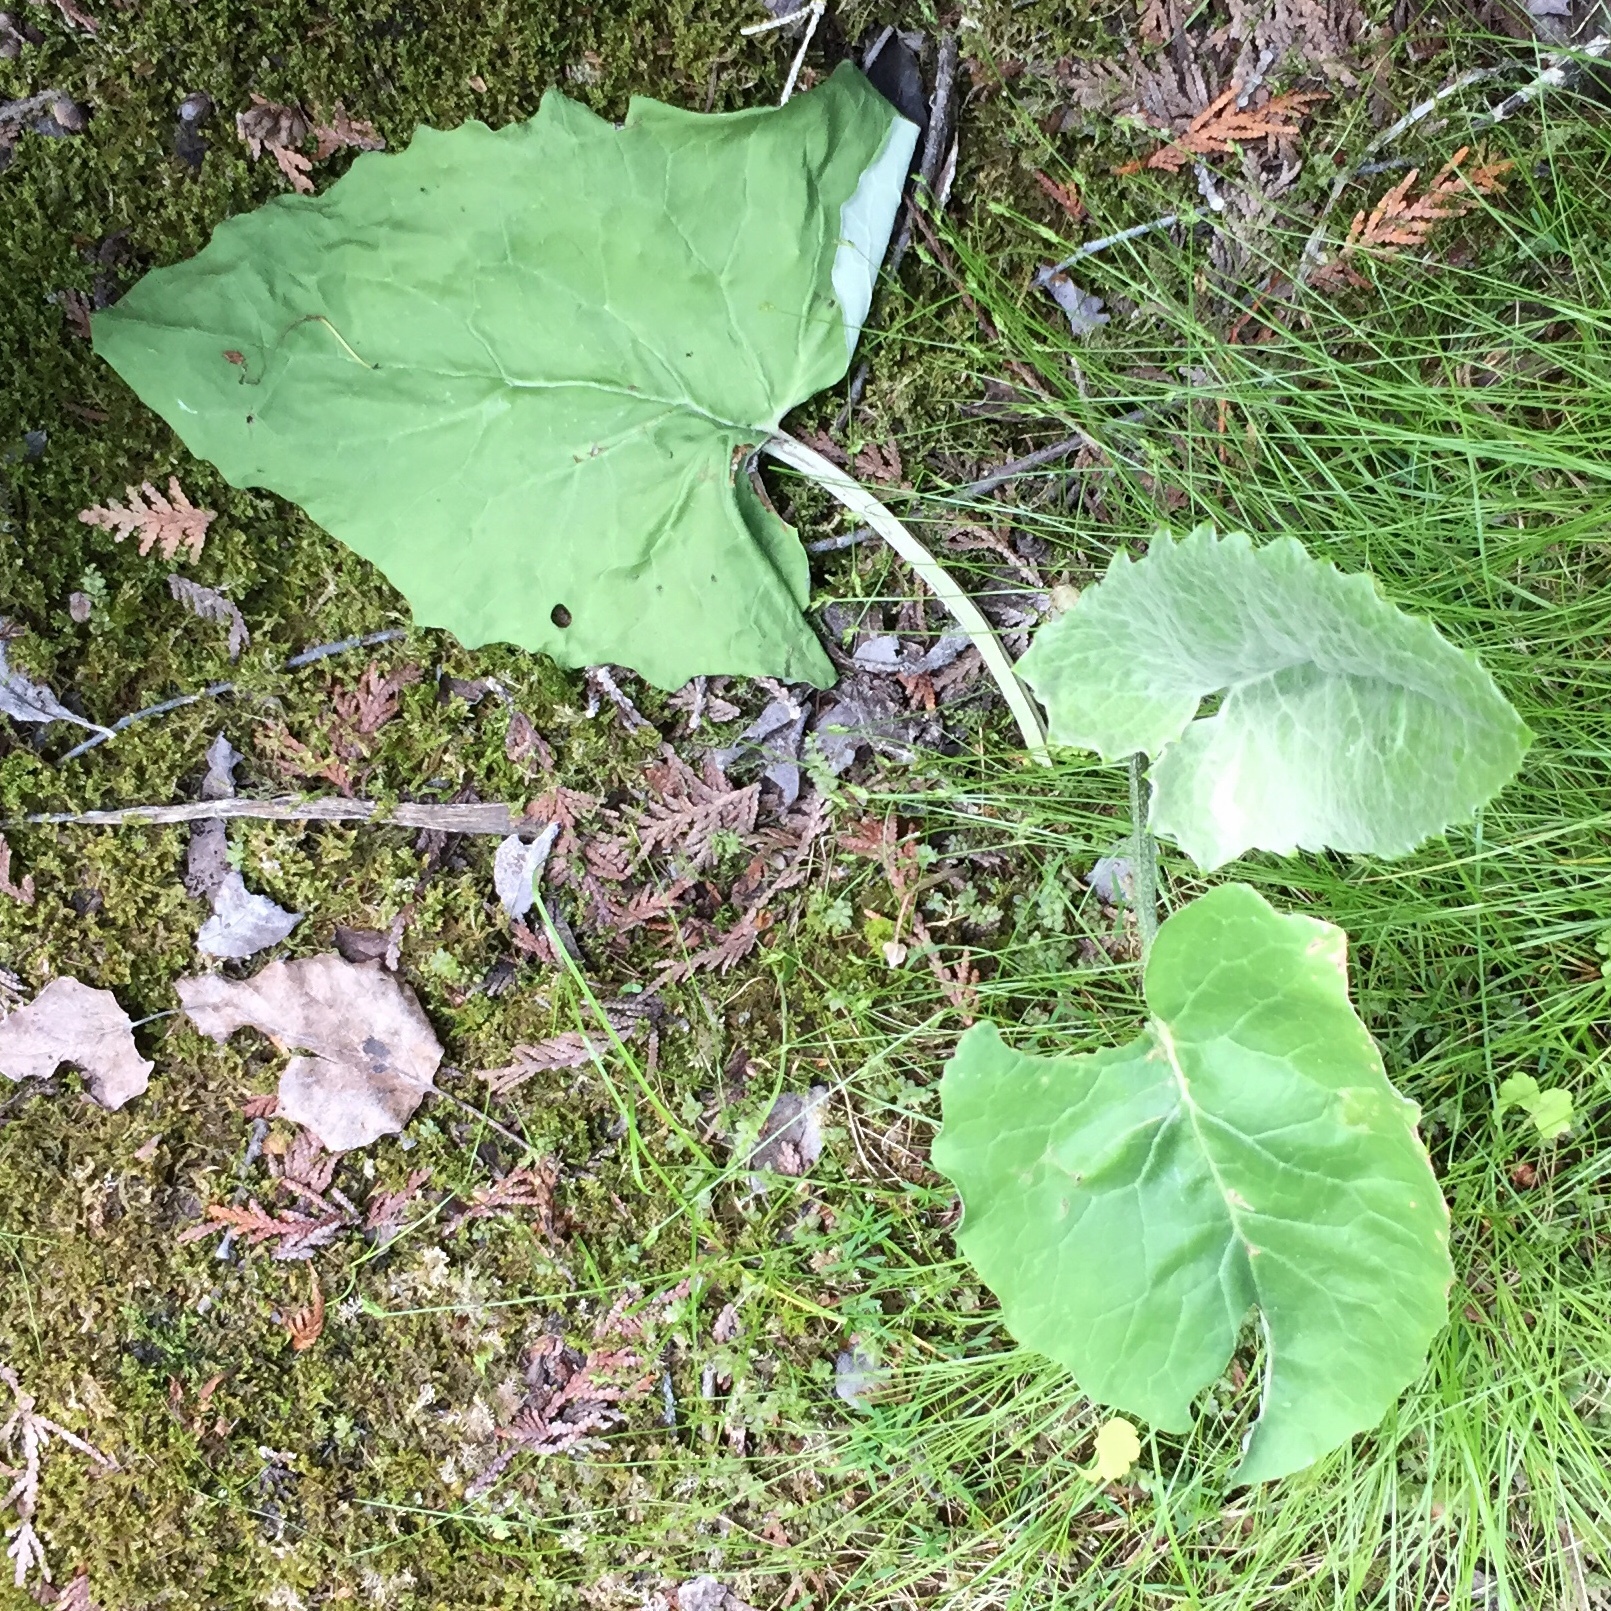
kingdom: Plantae
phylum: Tracheophyta
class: Magnoliopsida
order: Asterales
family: Asteraceae
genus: Petasites
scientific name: Petasites frigidus
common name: Arctic butterbur
